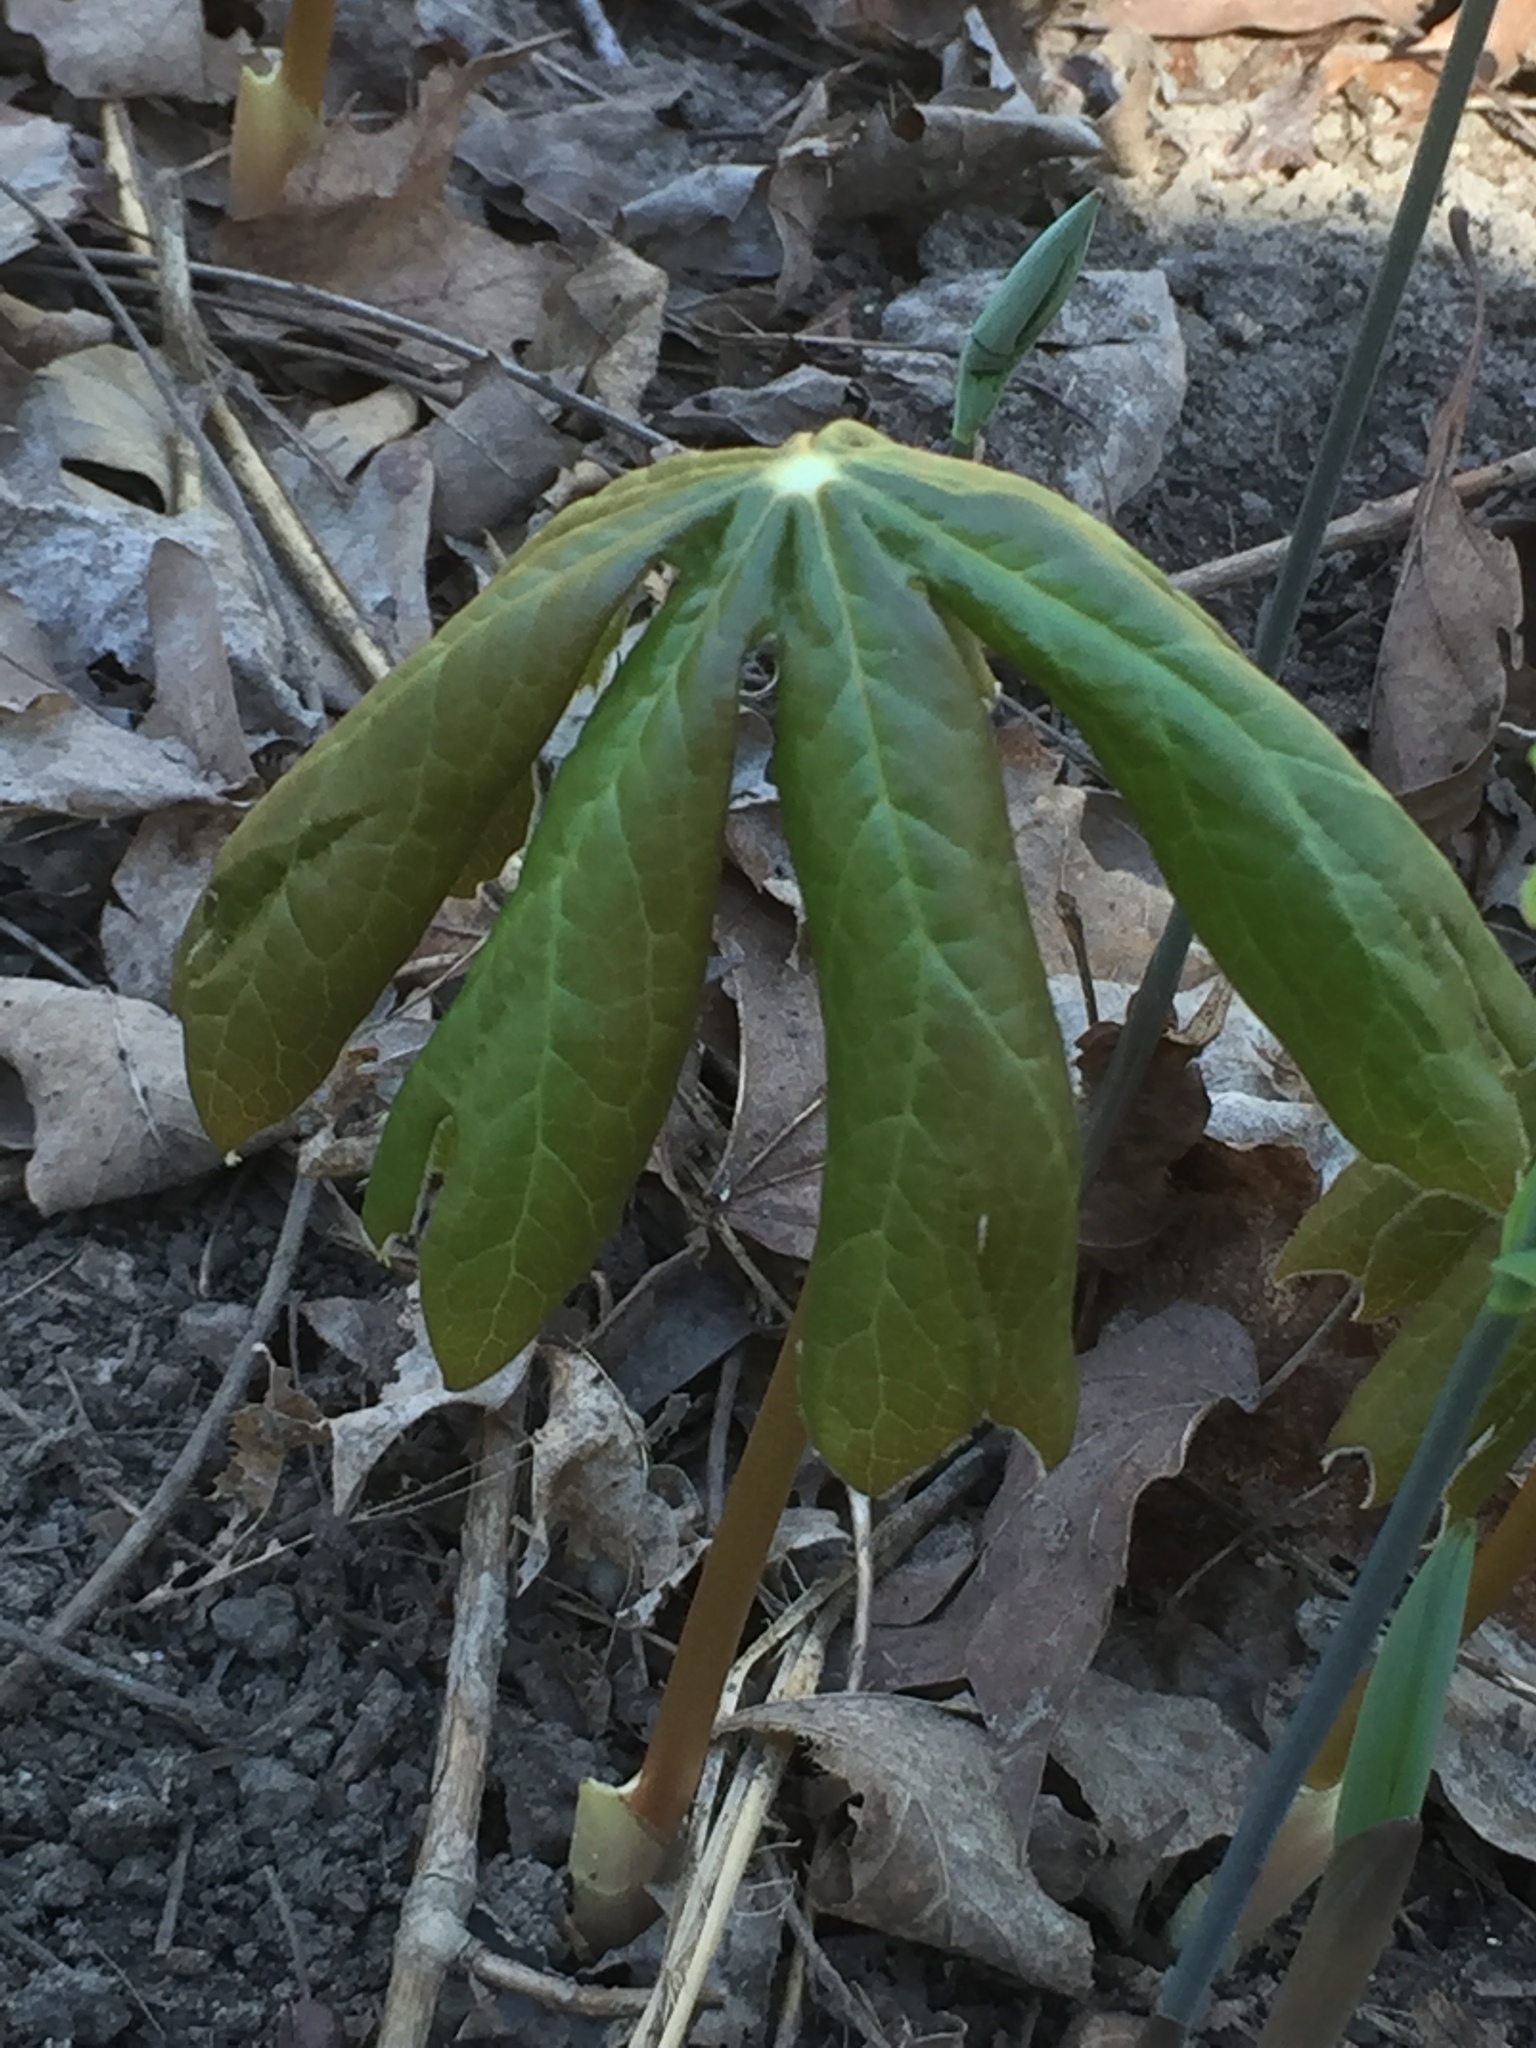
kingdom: Plantae
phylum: Tracheophyta
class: Magnoliopsida
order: Ranunculales
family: Berberidaceae
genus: Podophyllum
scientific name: Podophyllum peltatum
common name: Wild mandrake
